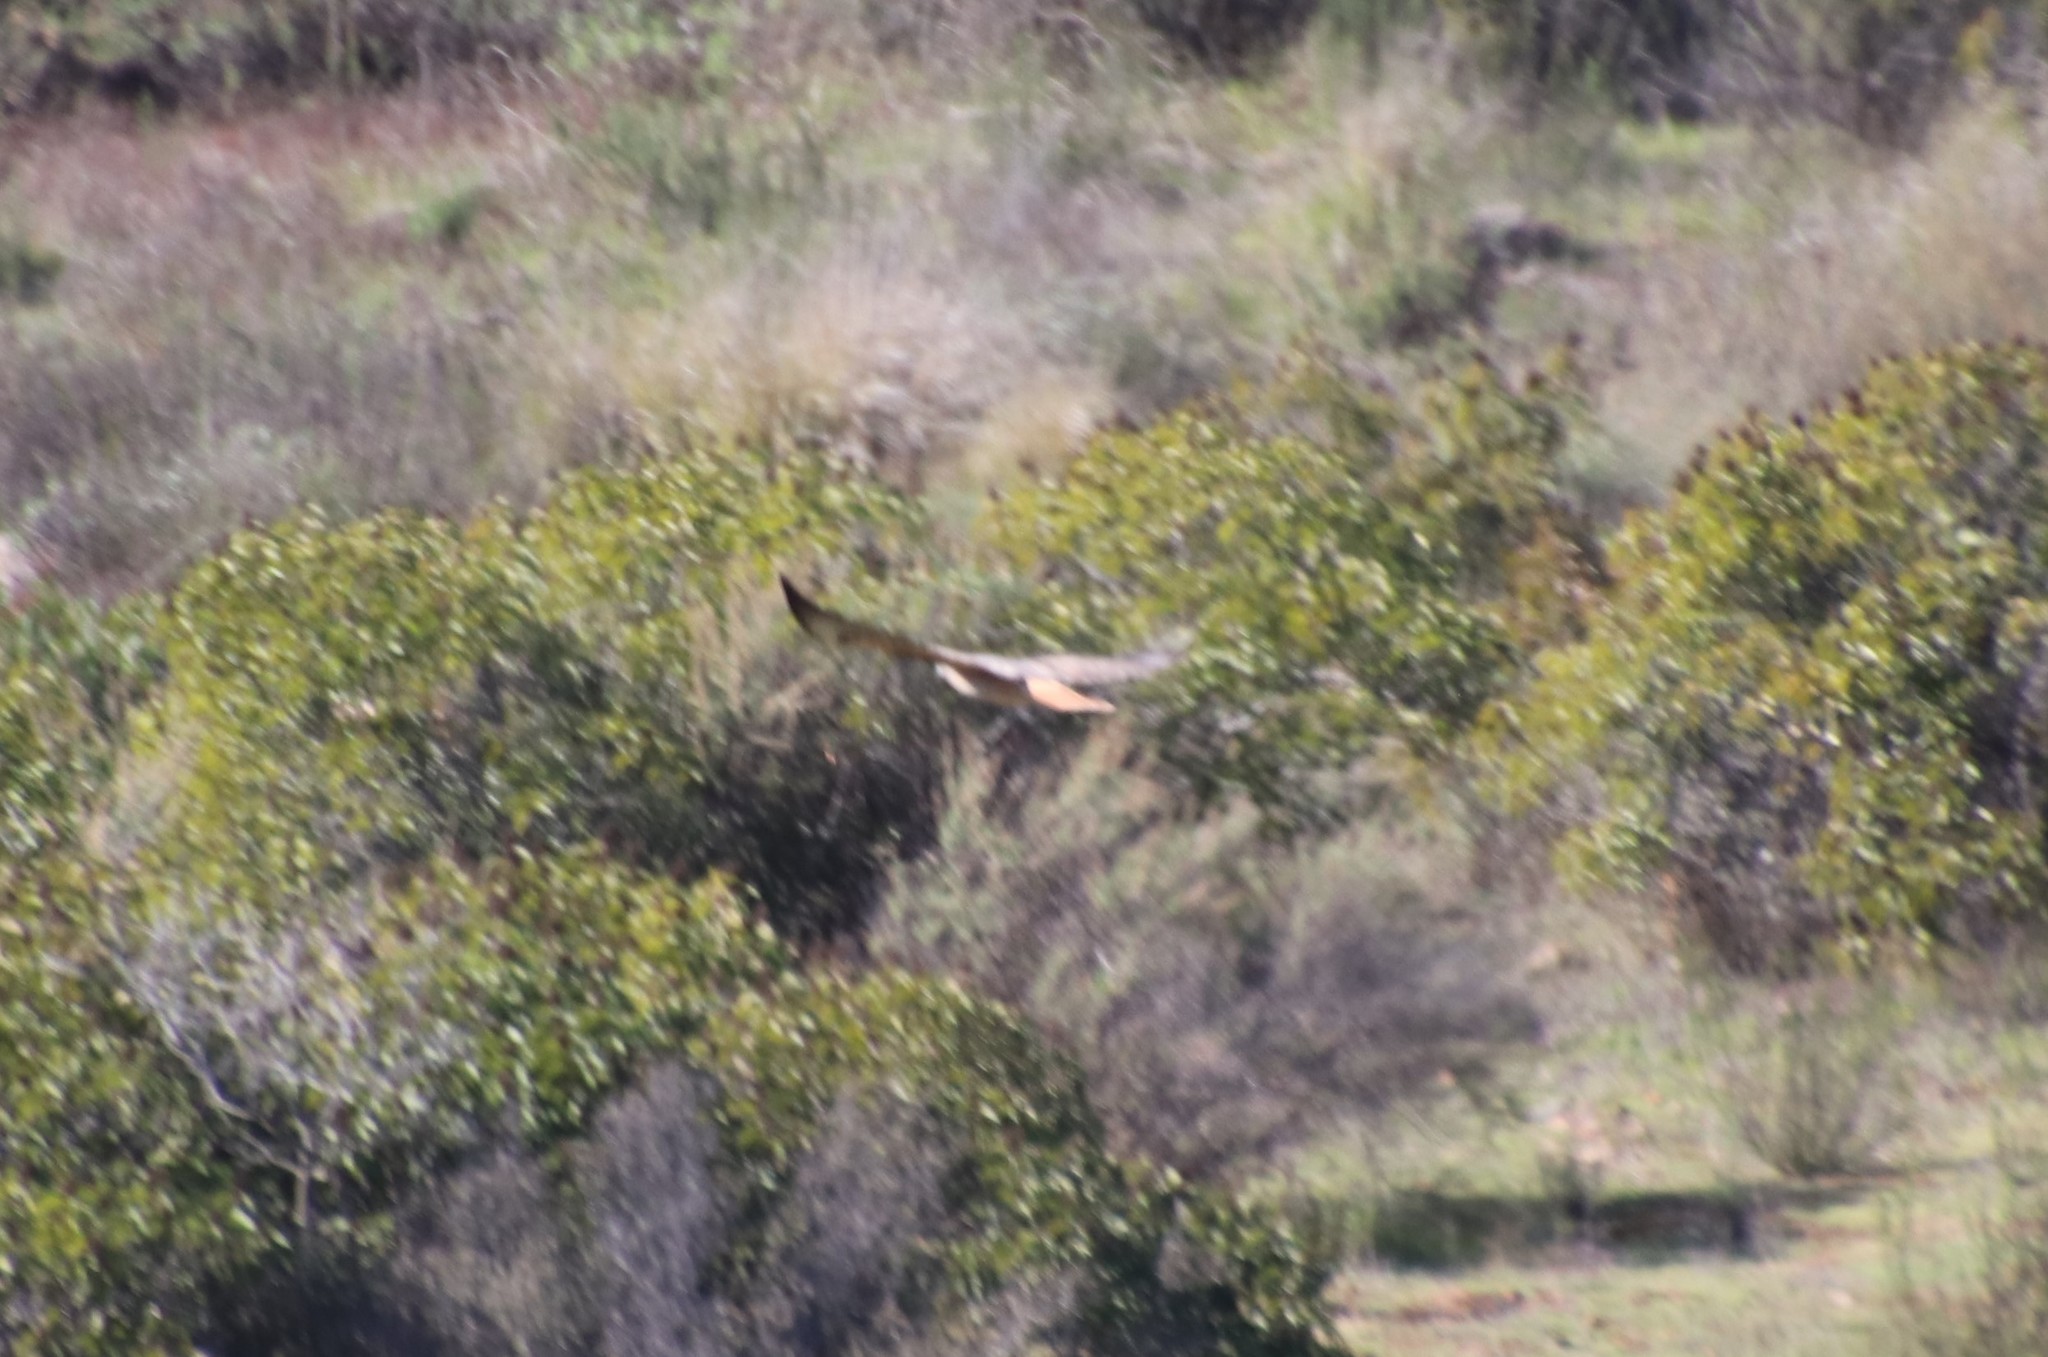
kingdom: Animalia
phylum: Chordata
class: Aves
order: Accipitriformes
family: Accipitridae
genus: Buteo
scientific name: Buteo jamaicensis
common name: Red-tailed hawk
